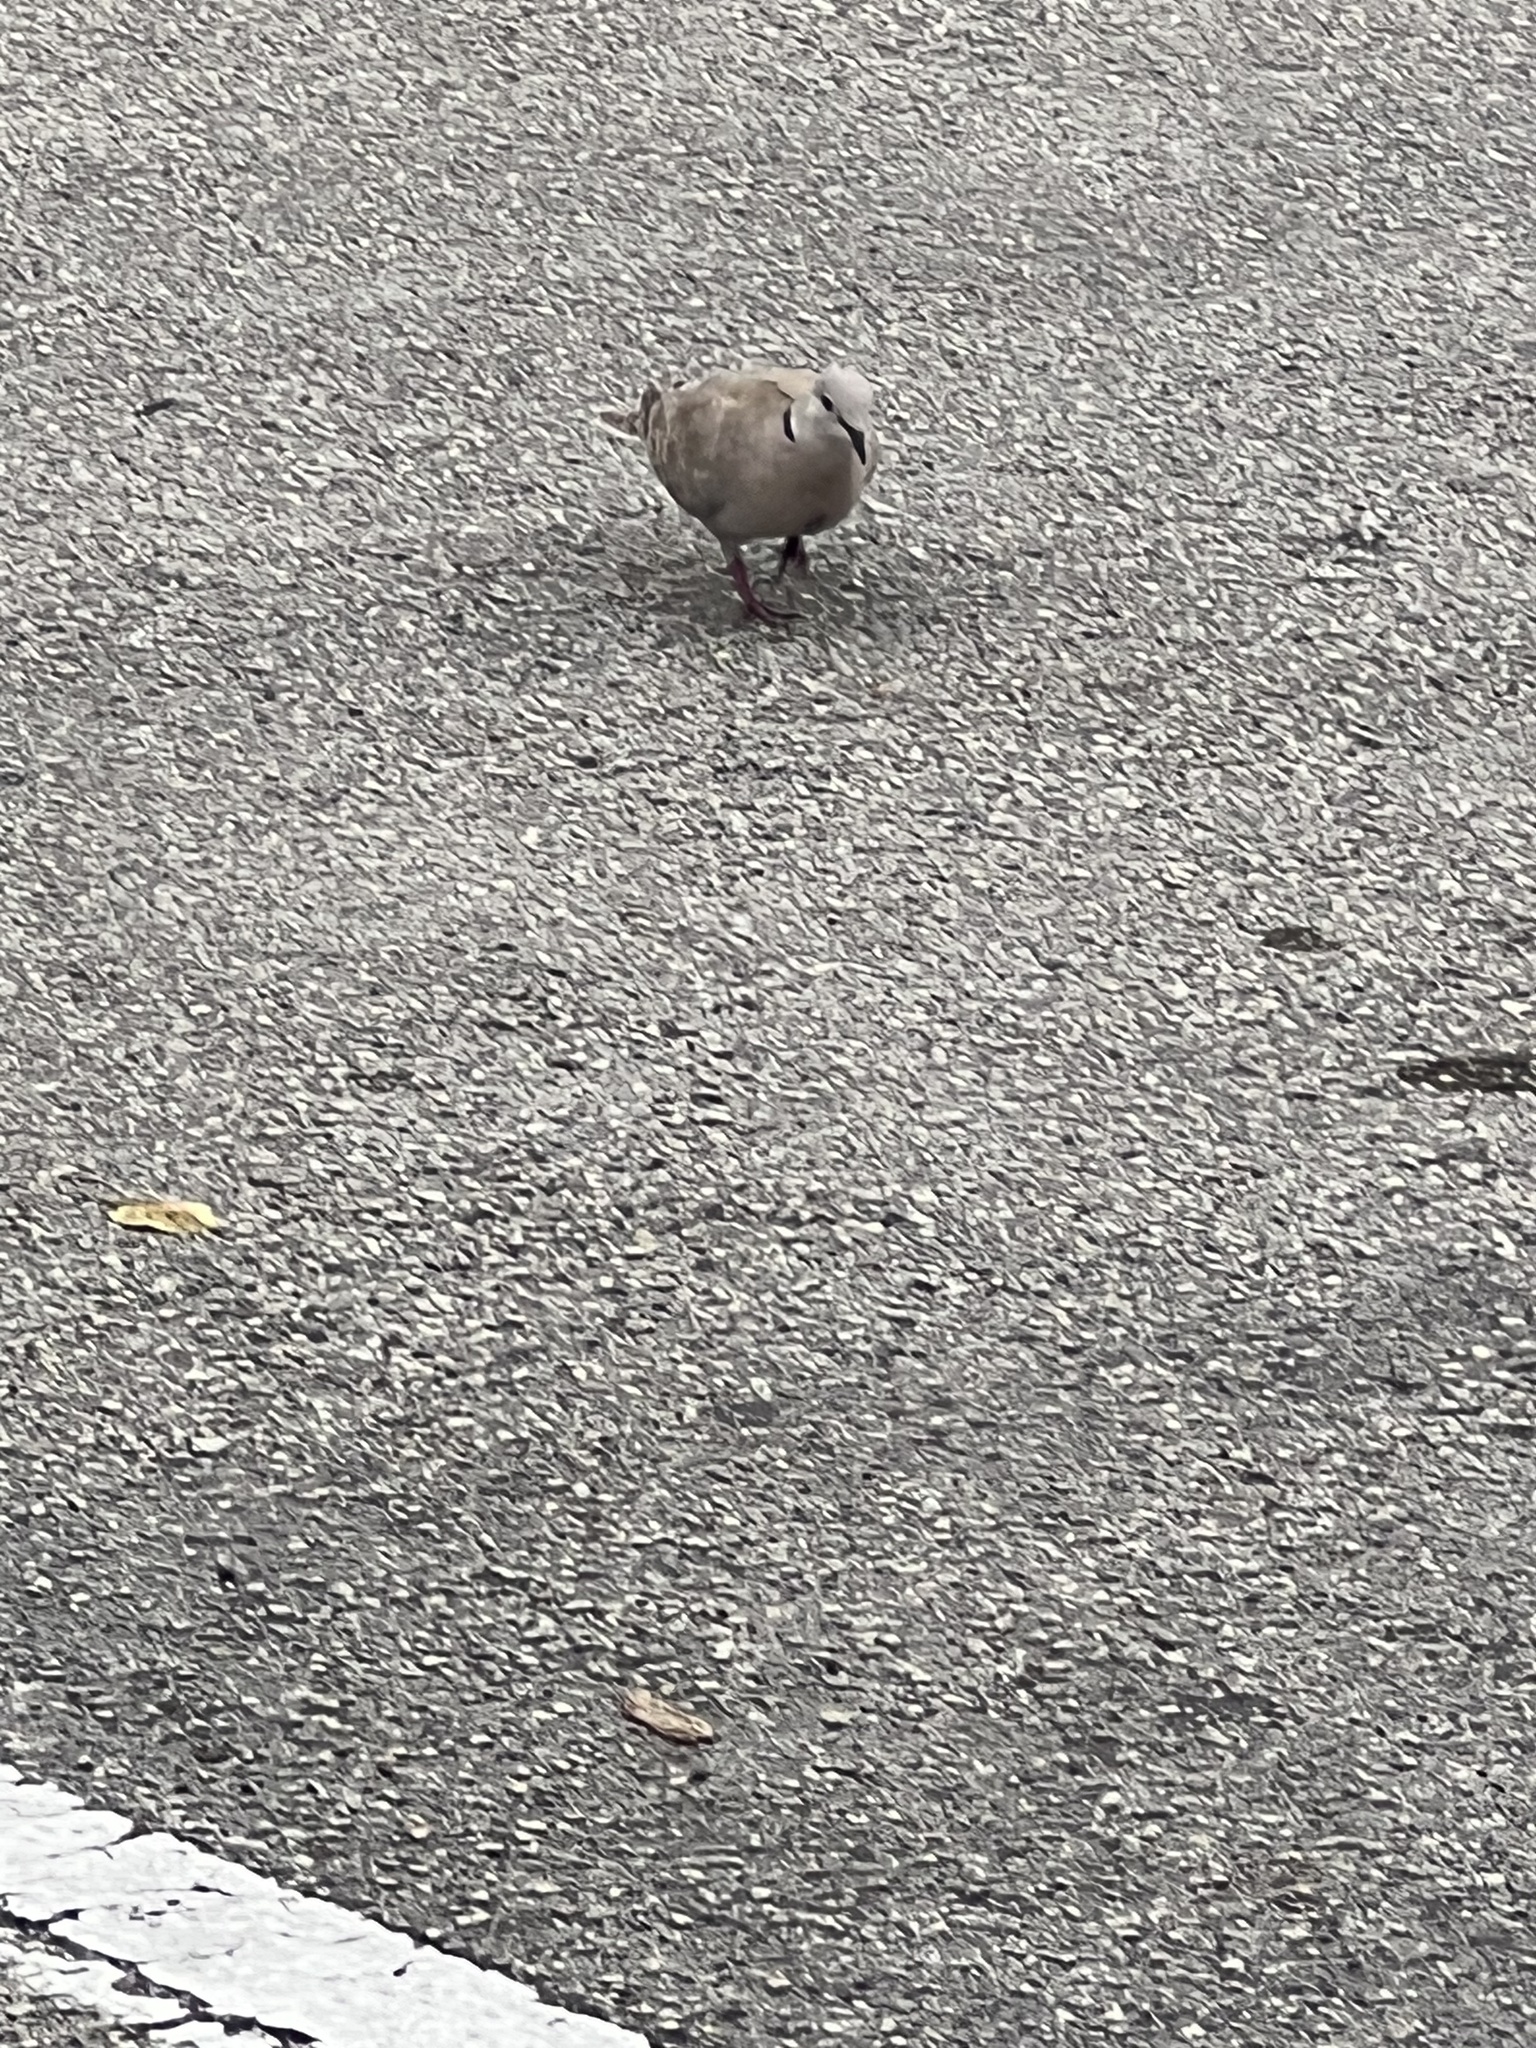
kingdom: Animalia
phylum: Chordata
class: Aves
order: Columbiformes
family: Columbidae
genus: Streptopelia
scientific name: Streptopelia decaocto
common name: Eurasian collared dove
